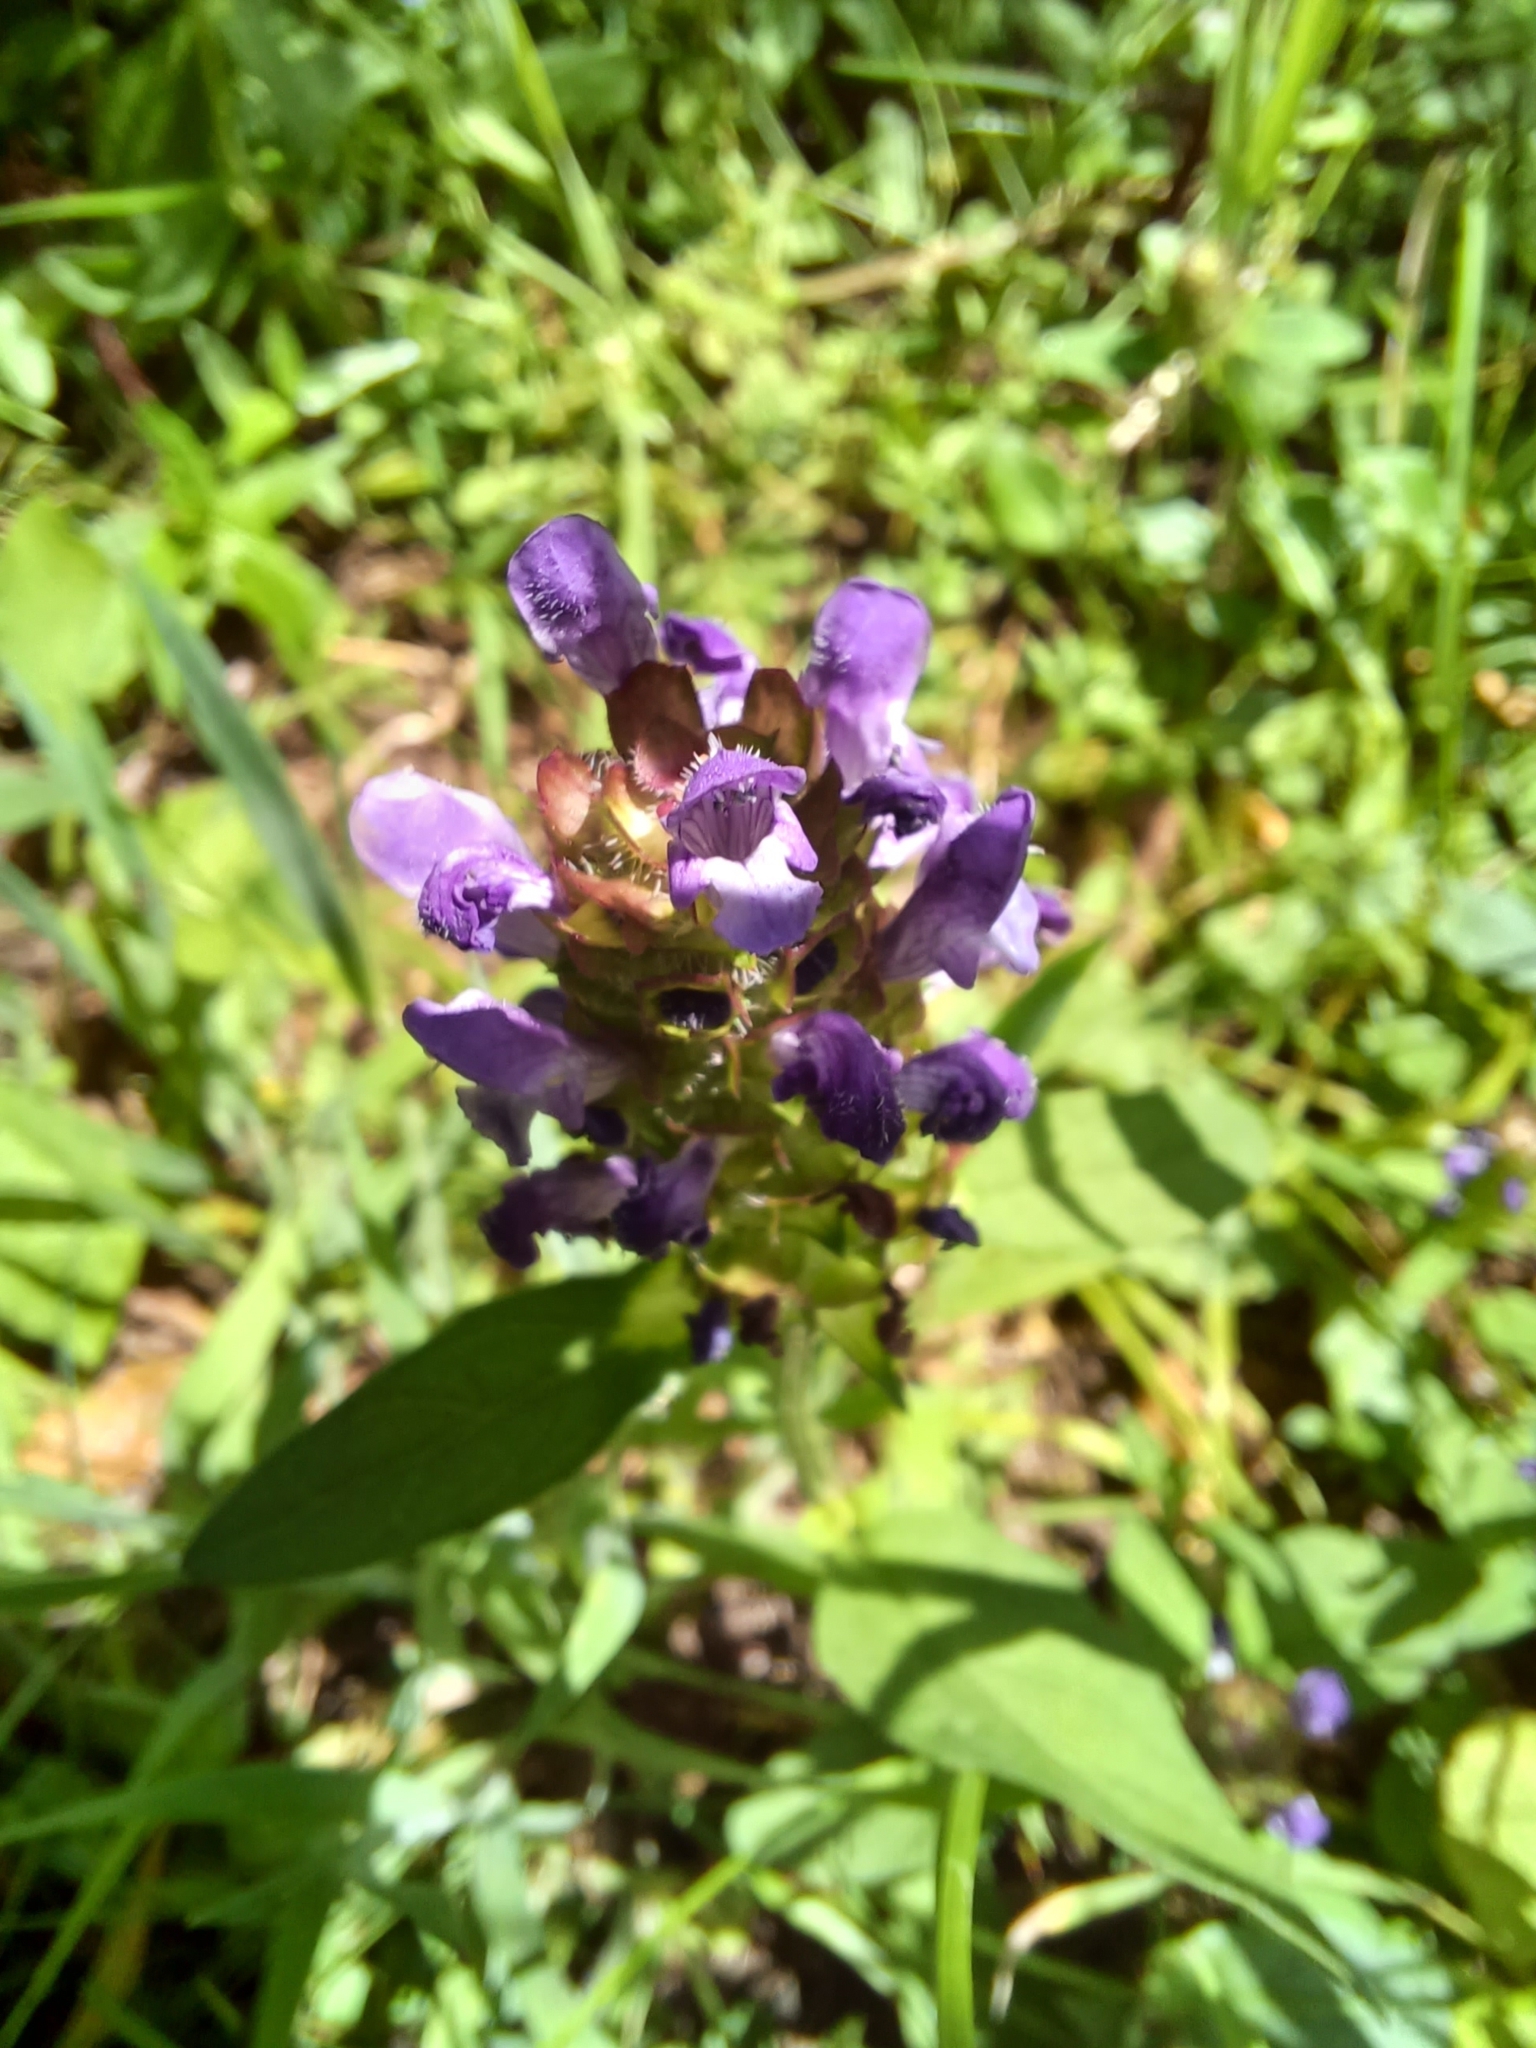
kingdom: Plantae
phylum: Tracheophyta
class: Magnoliopsida
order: Lamiales
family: Lamiaceae
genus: Prunella
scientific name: Prunella vulgaris
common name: Heal-all
